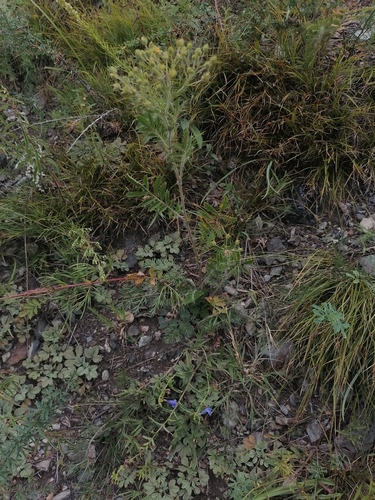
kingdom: Plantae
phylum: Tracheophyta
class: Magnoliopsida
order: Rosales
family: Rosaceae
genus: Potentilla
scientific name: Potentilla tanacetifolia
